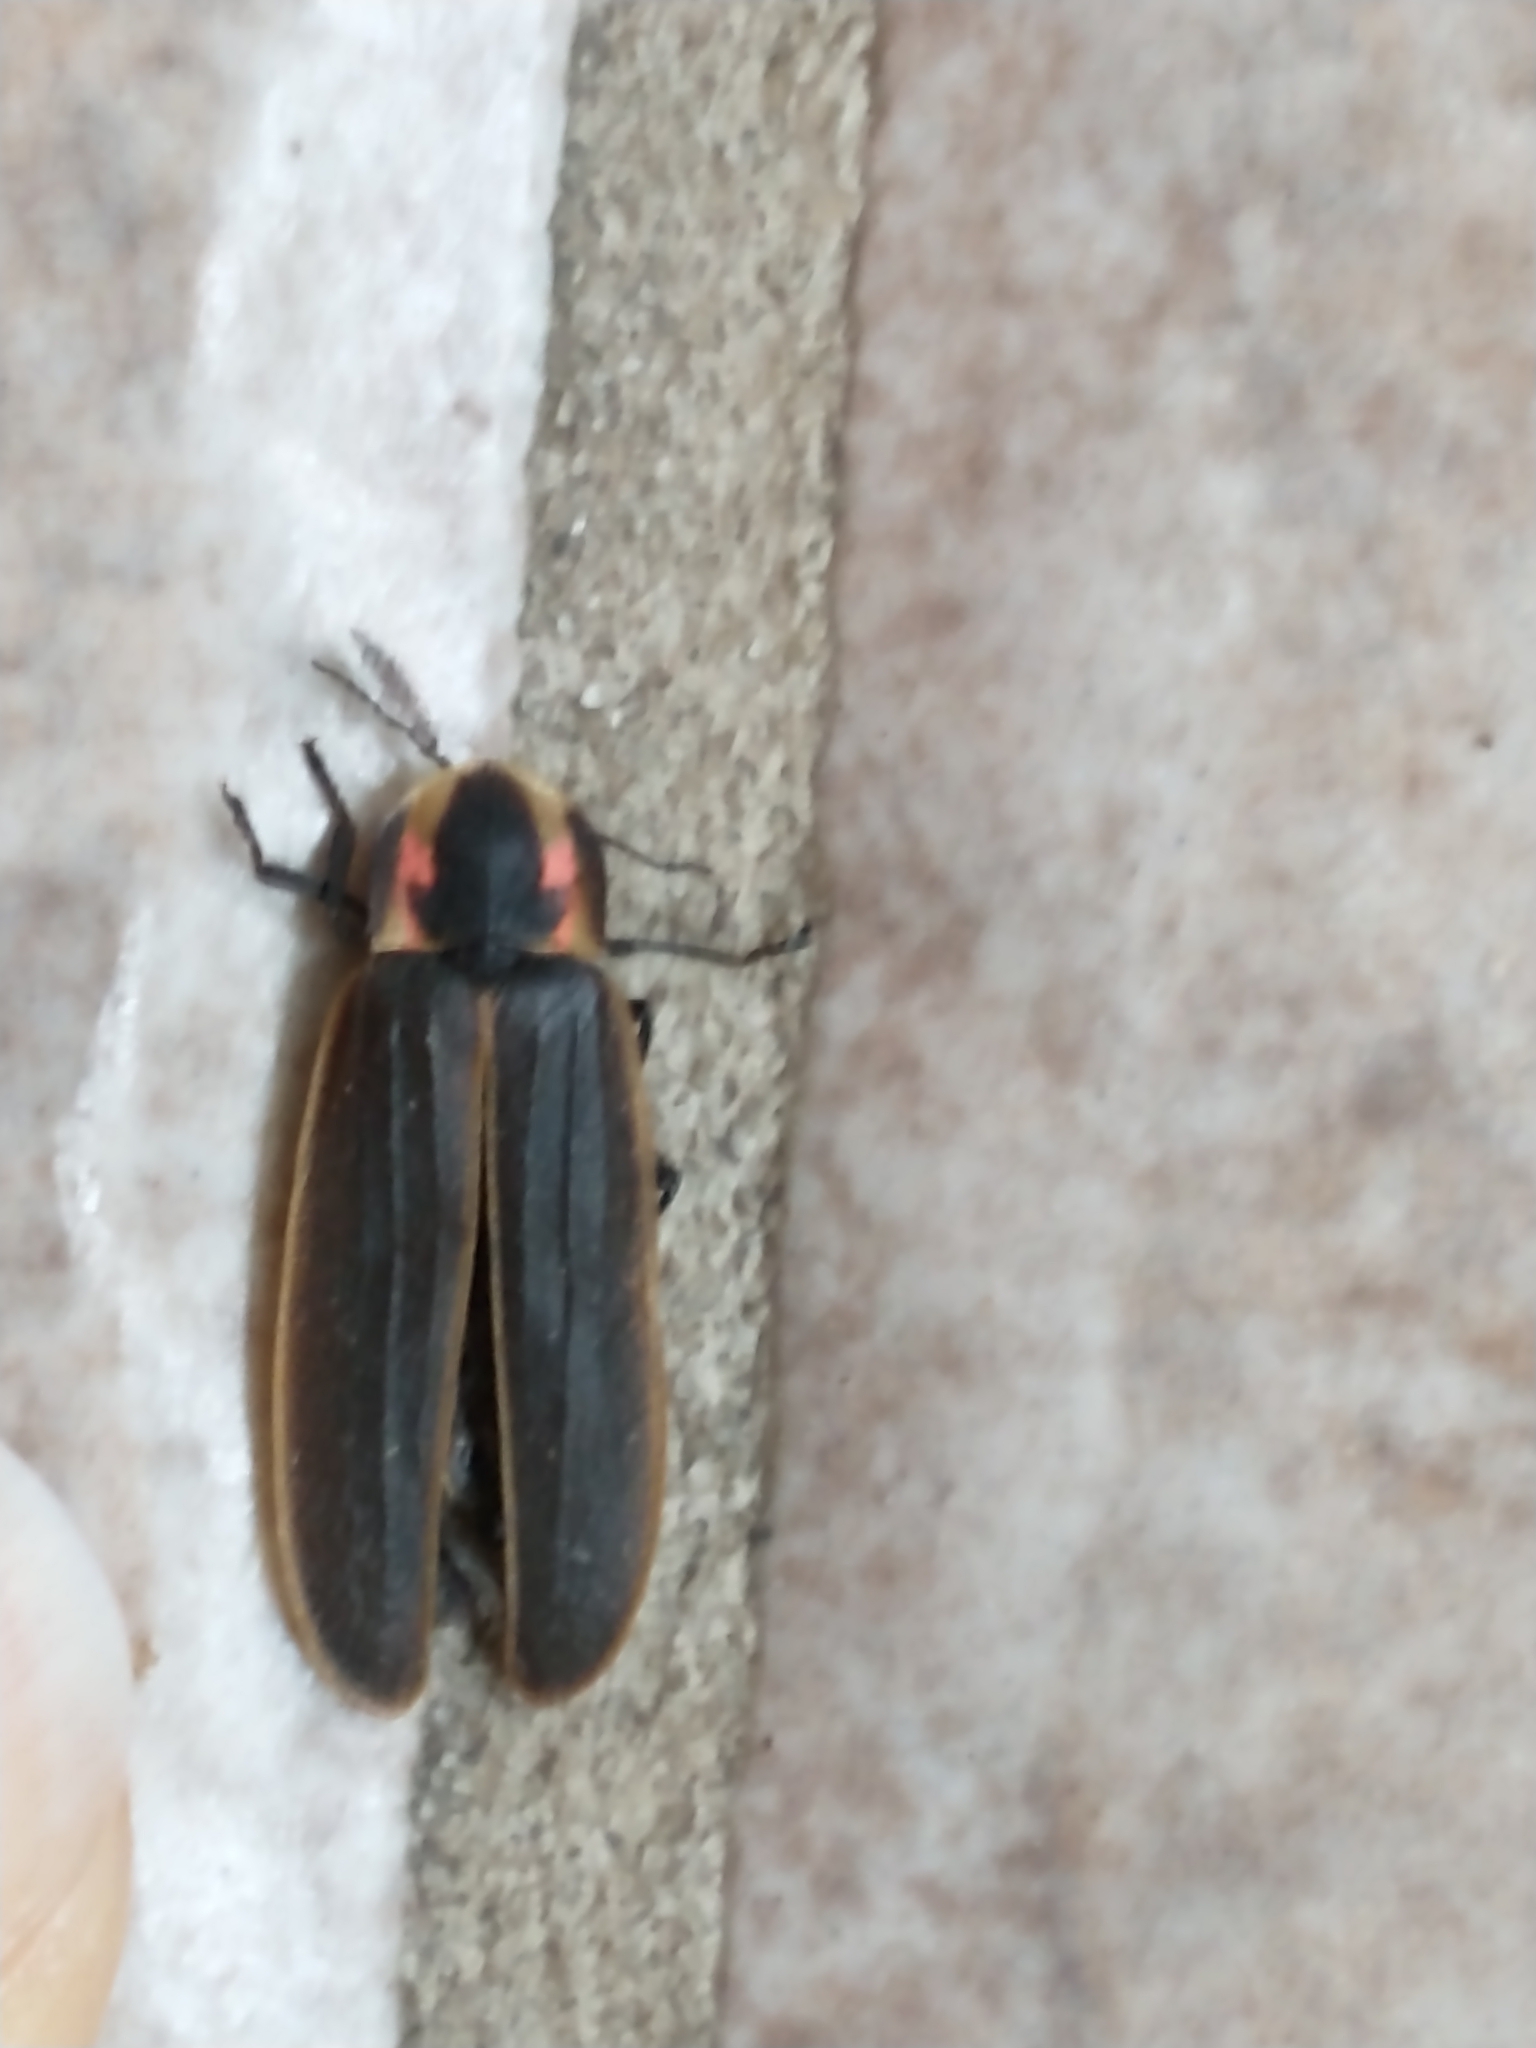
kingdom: Animalia
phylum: Arthropoda
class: Insecta
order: Coleoptera
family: Lampyridae
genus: Pyractomena
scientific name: Pyractomena borealis
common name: Northern firefly
